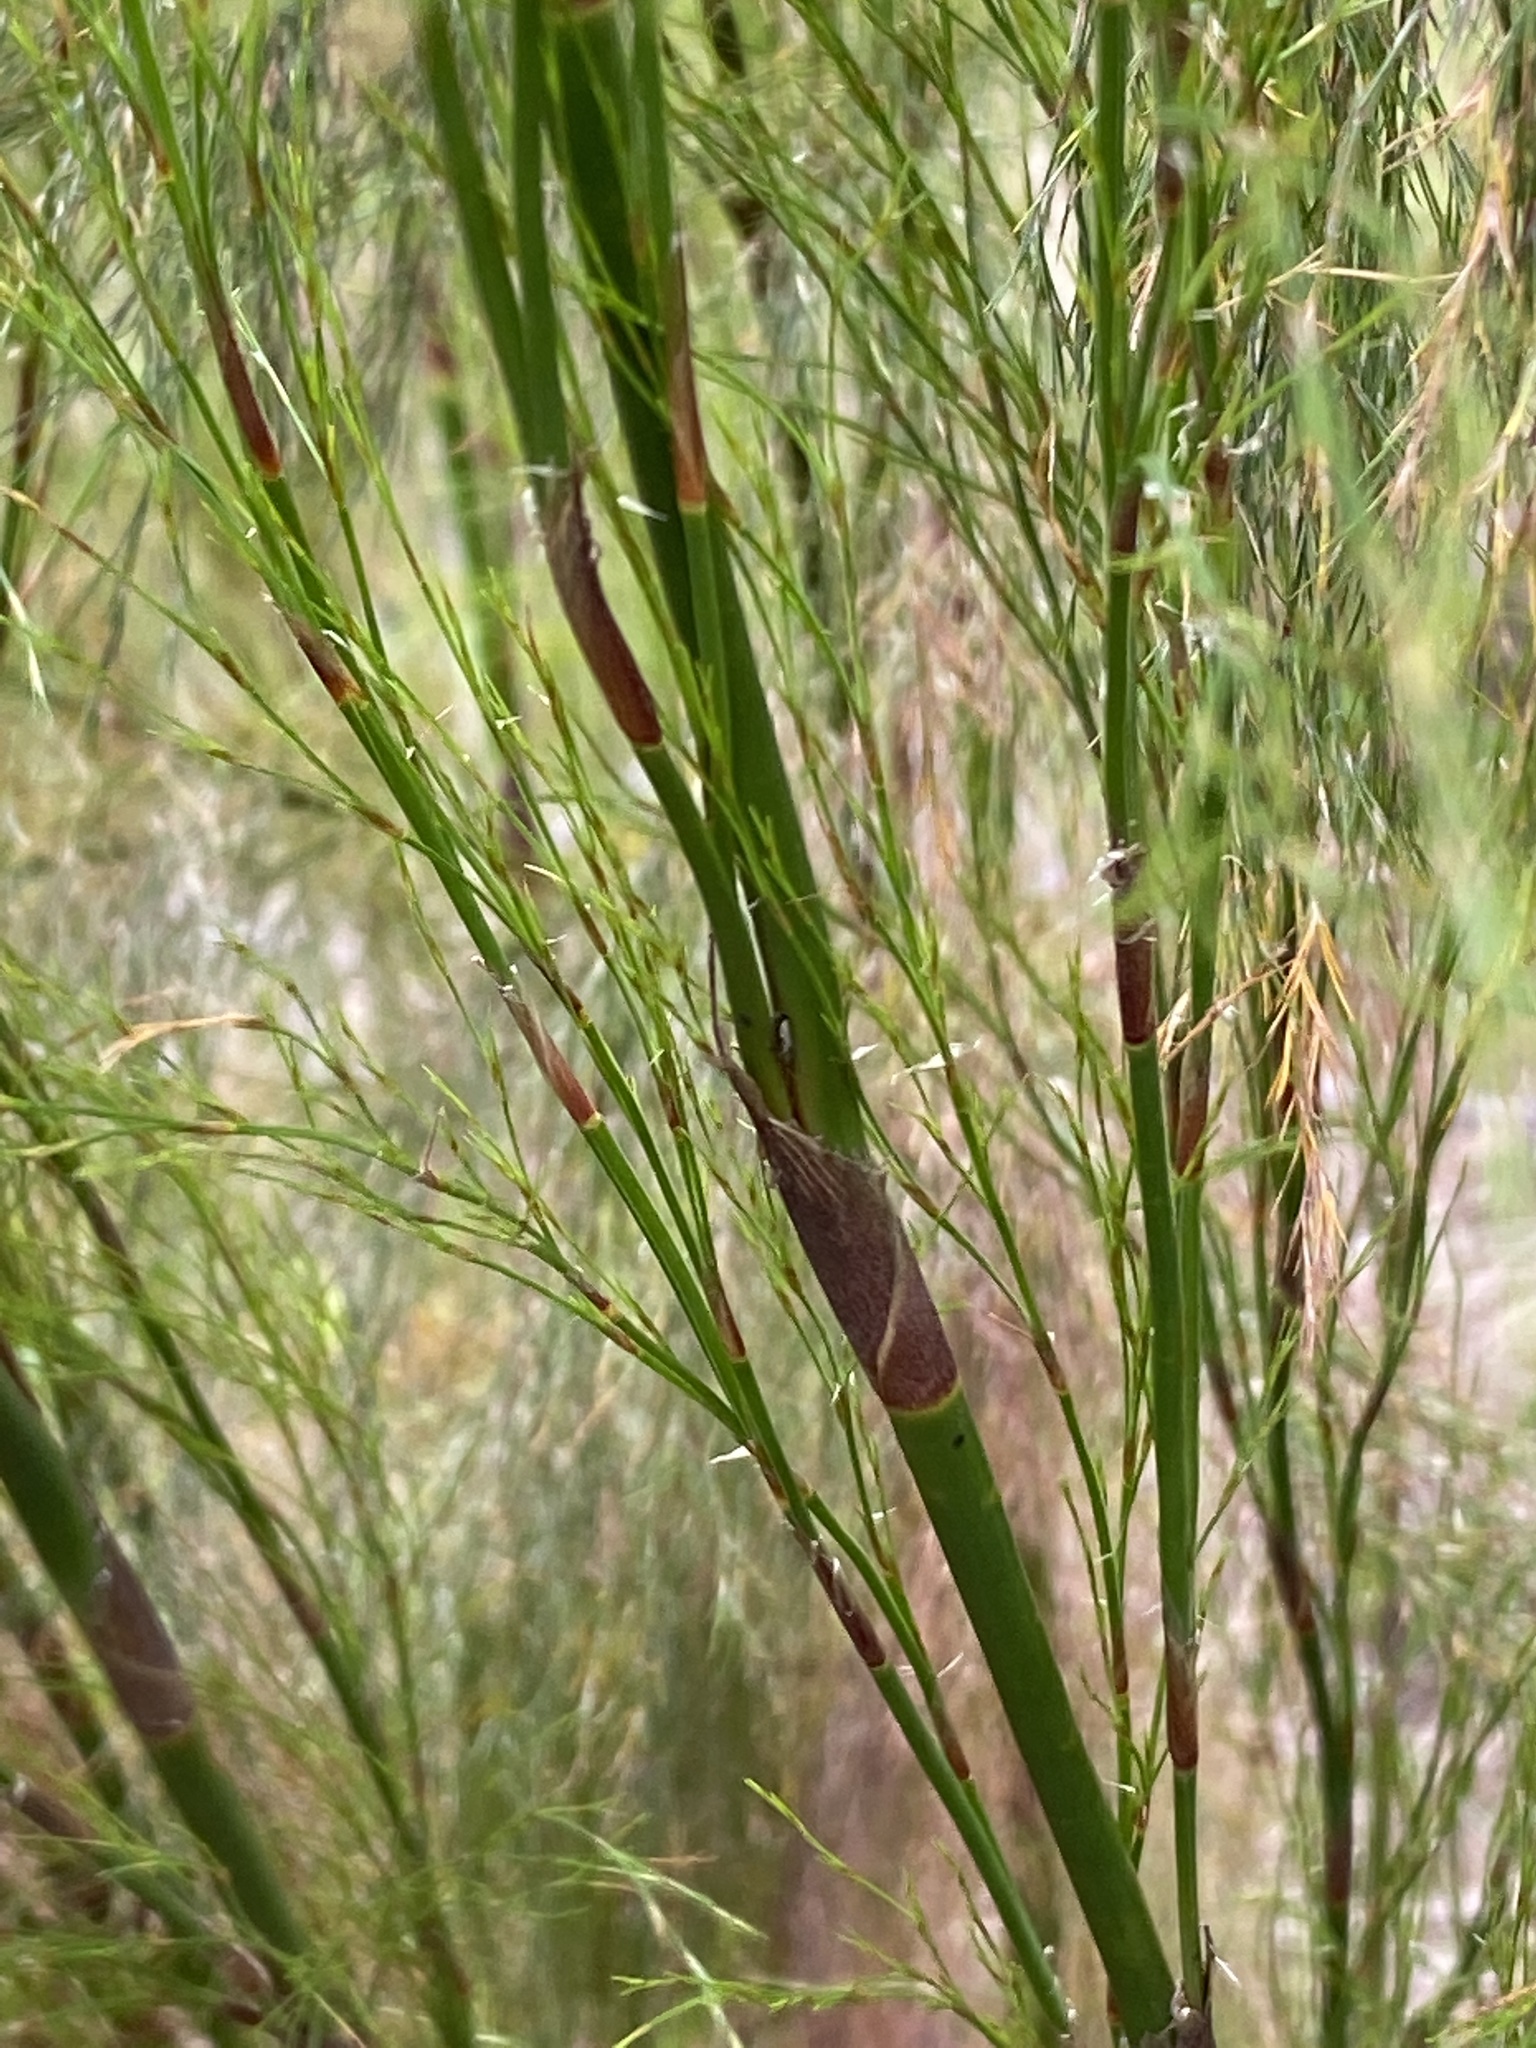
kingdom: Plantae
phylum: Tracheophyta
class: Liliopsida
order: Poales
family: Restionaceae
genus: Restio
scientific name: Restio paniculatus
